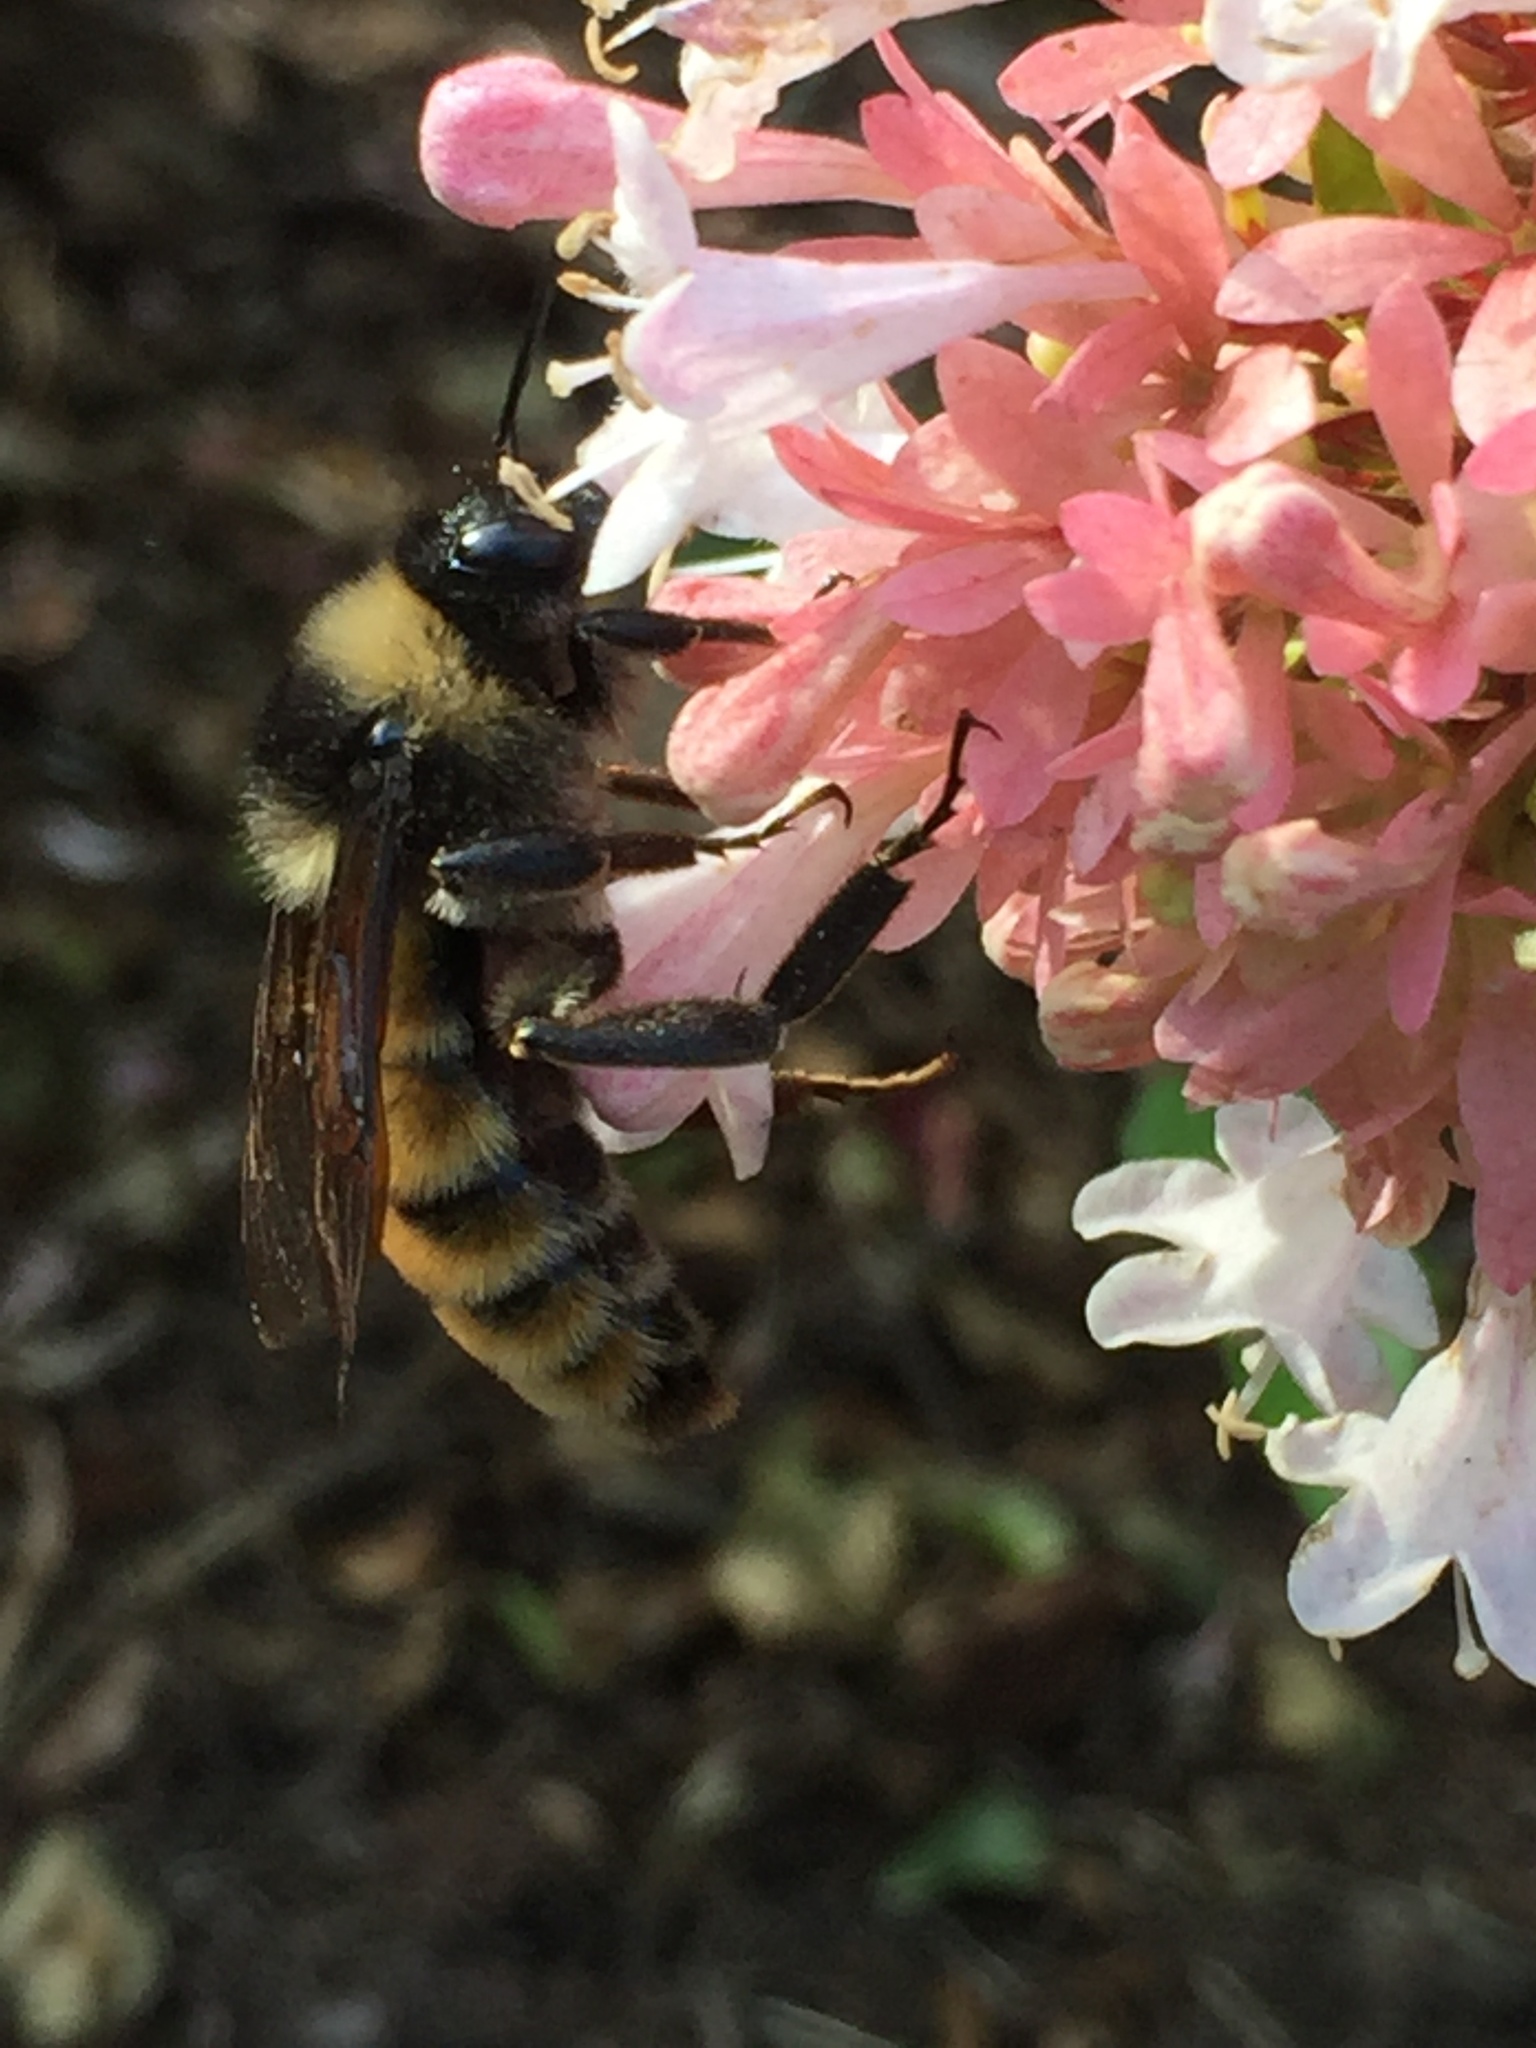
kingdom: Animalia
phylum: Arthropoda
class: Insecta
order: Hymenoptera
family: Apidae
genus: Bombus
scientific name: Bombus pensylvanicus
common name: Bumble bee
